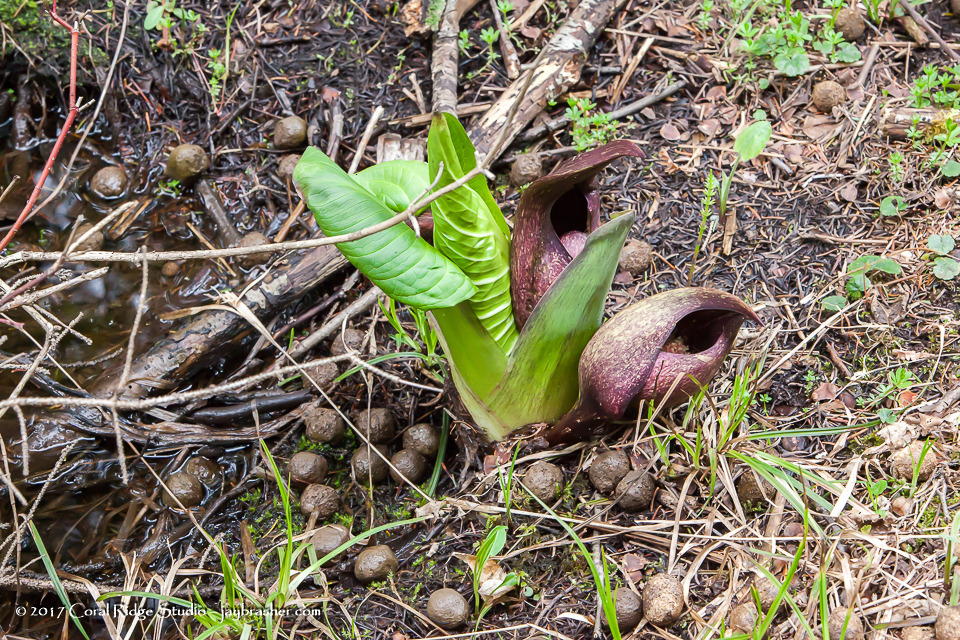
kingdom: Plantae
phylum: Tracheophyta
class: Liliopsida
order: Alismatales
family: Araceae
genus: Symplocarpus
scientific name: Symplocarpus foetidus
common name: Eastern skunk cabbage
